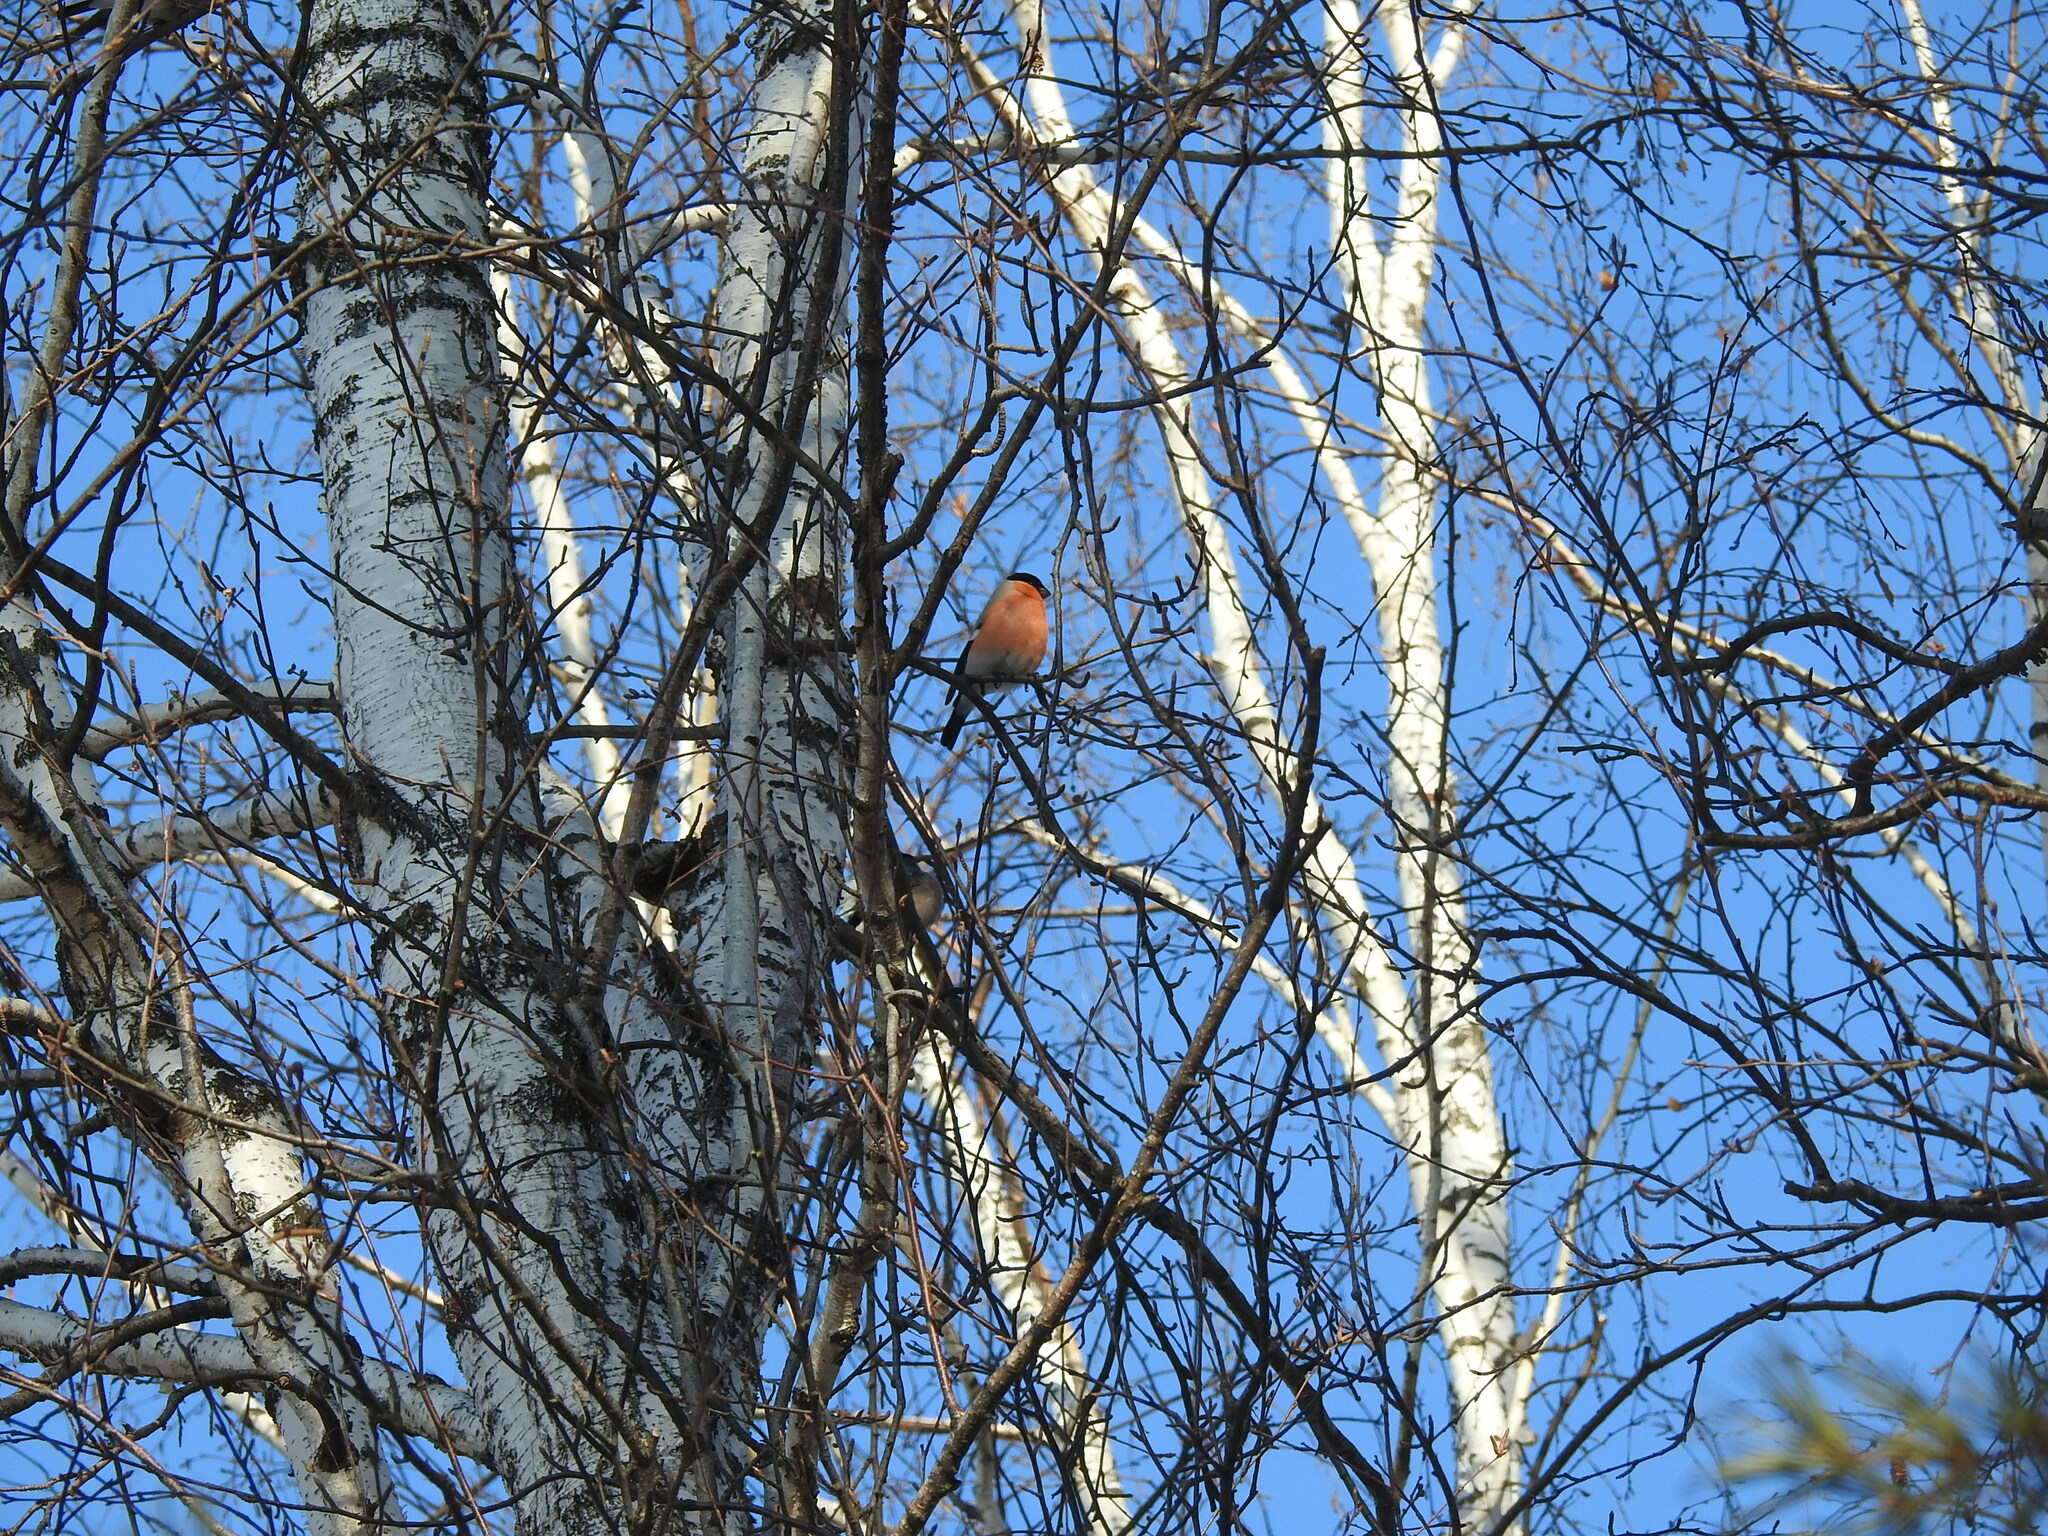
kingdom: Animalia
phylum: Chordata
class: Aves
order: Passeriformes
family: Fringillidae
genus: Pyrrhula
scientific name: Pyrrhula pyrrhula
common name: Eurasian bullfinch
